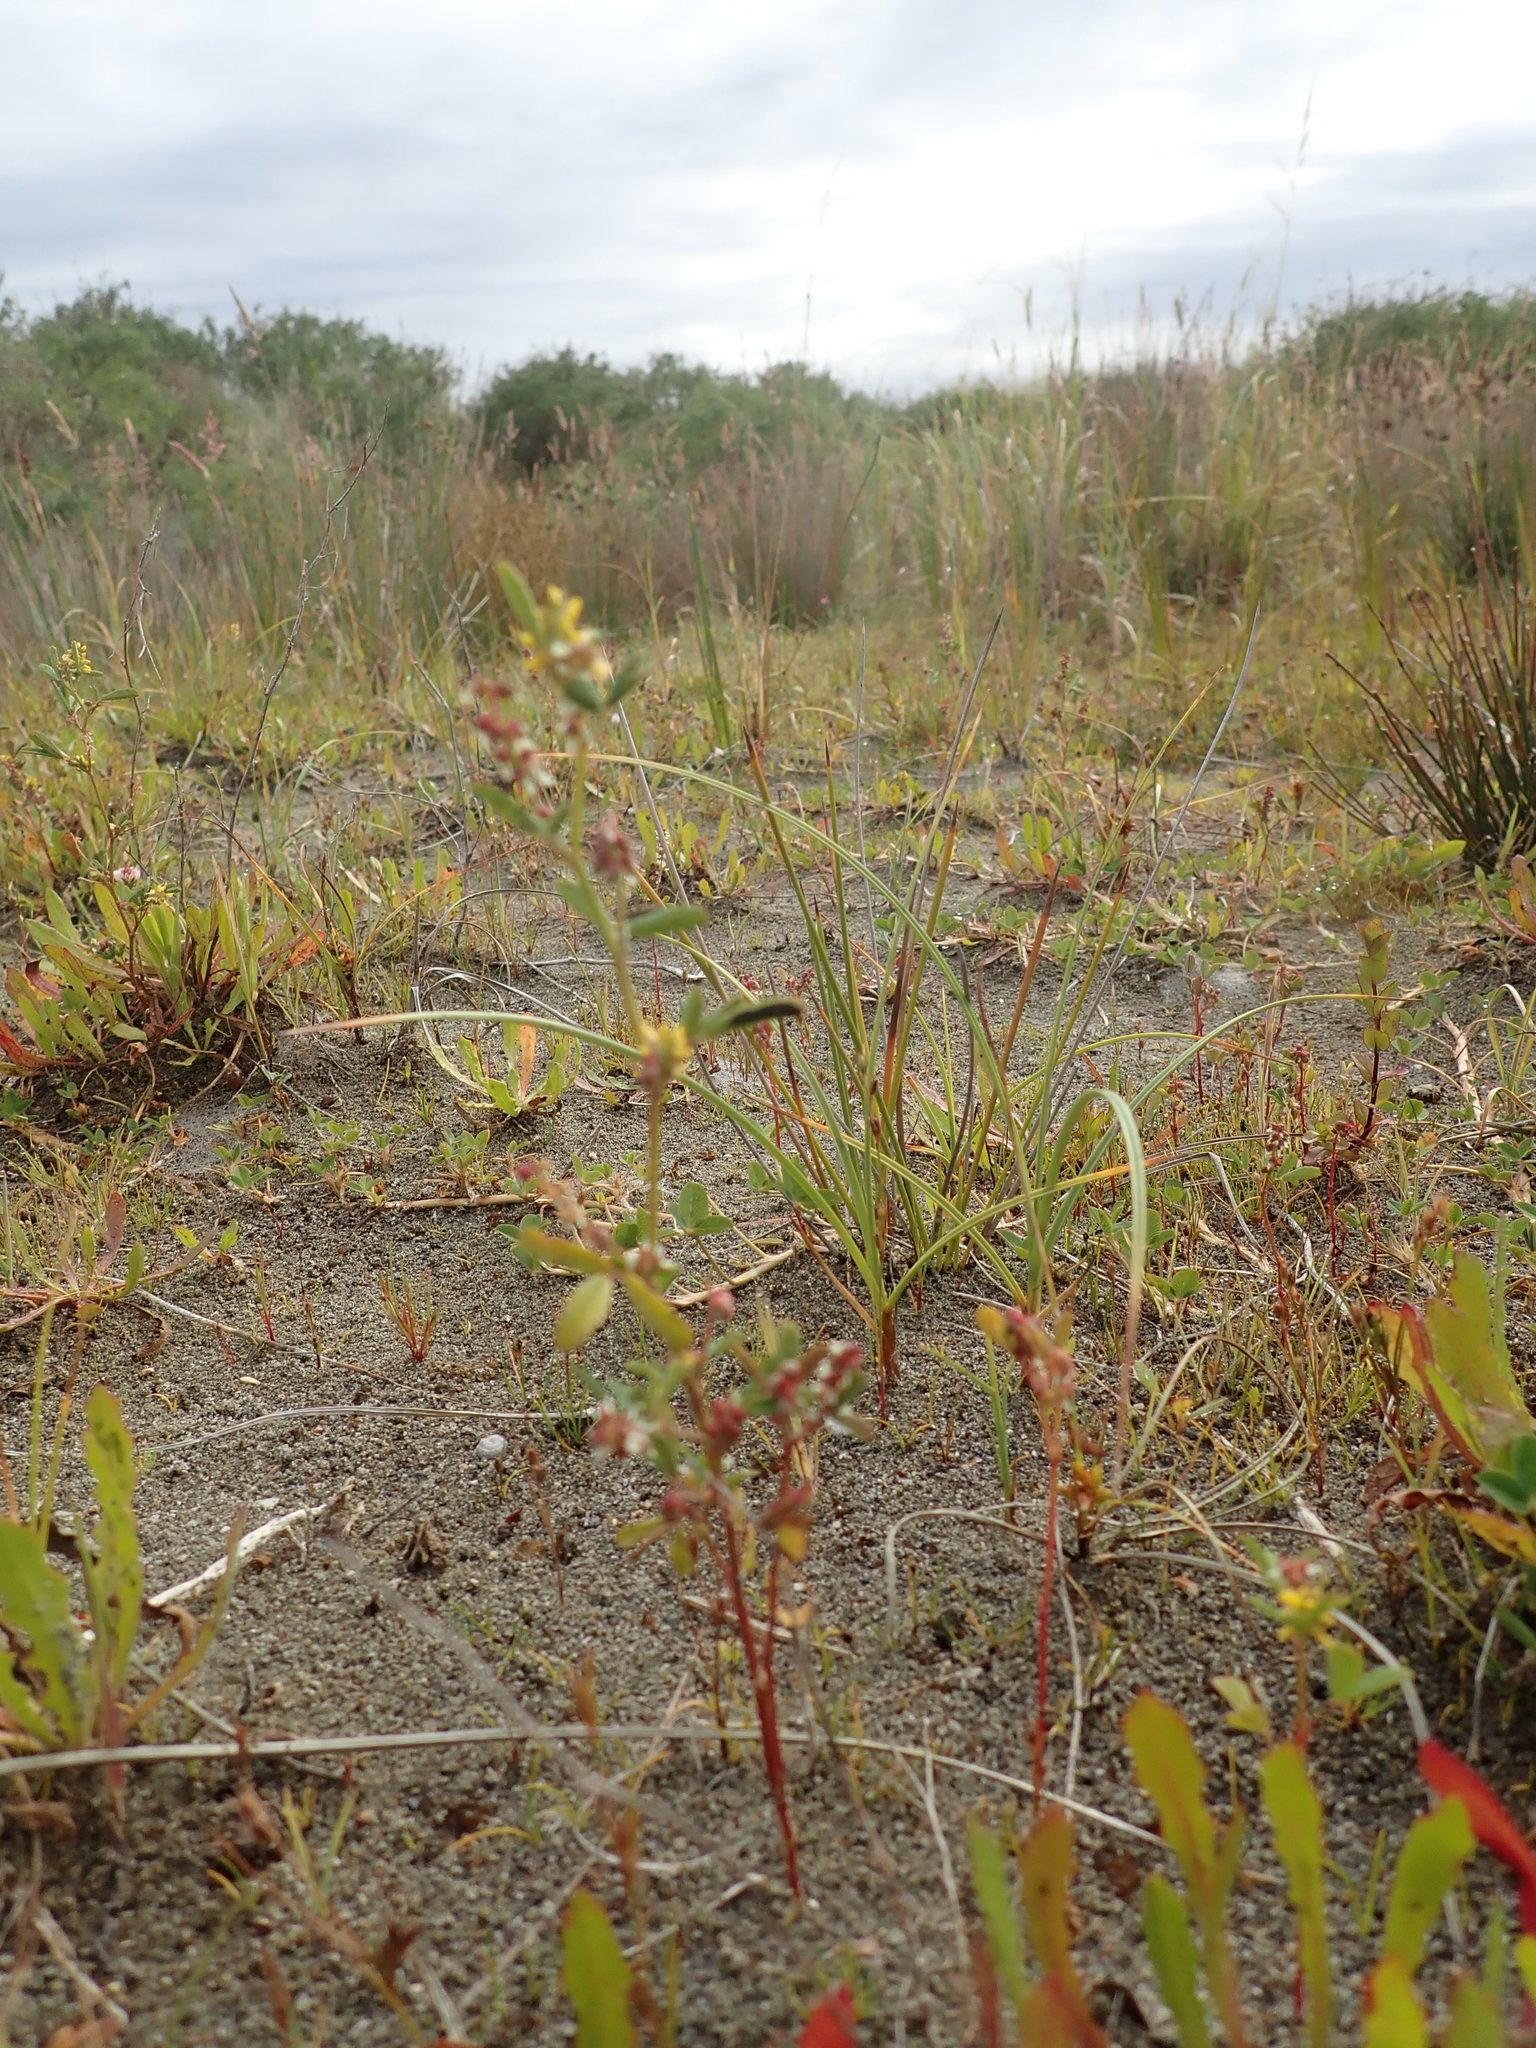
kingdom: Plantae
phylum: Tracheophyta
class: Magnoliopsida
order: Fabales
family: Fabaceae
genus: Melilotus
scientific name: Melilotus indicus
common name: Small melilot
